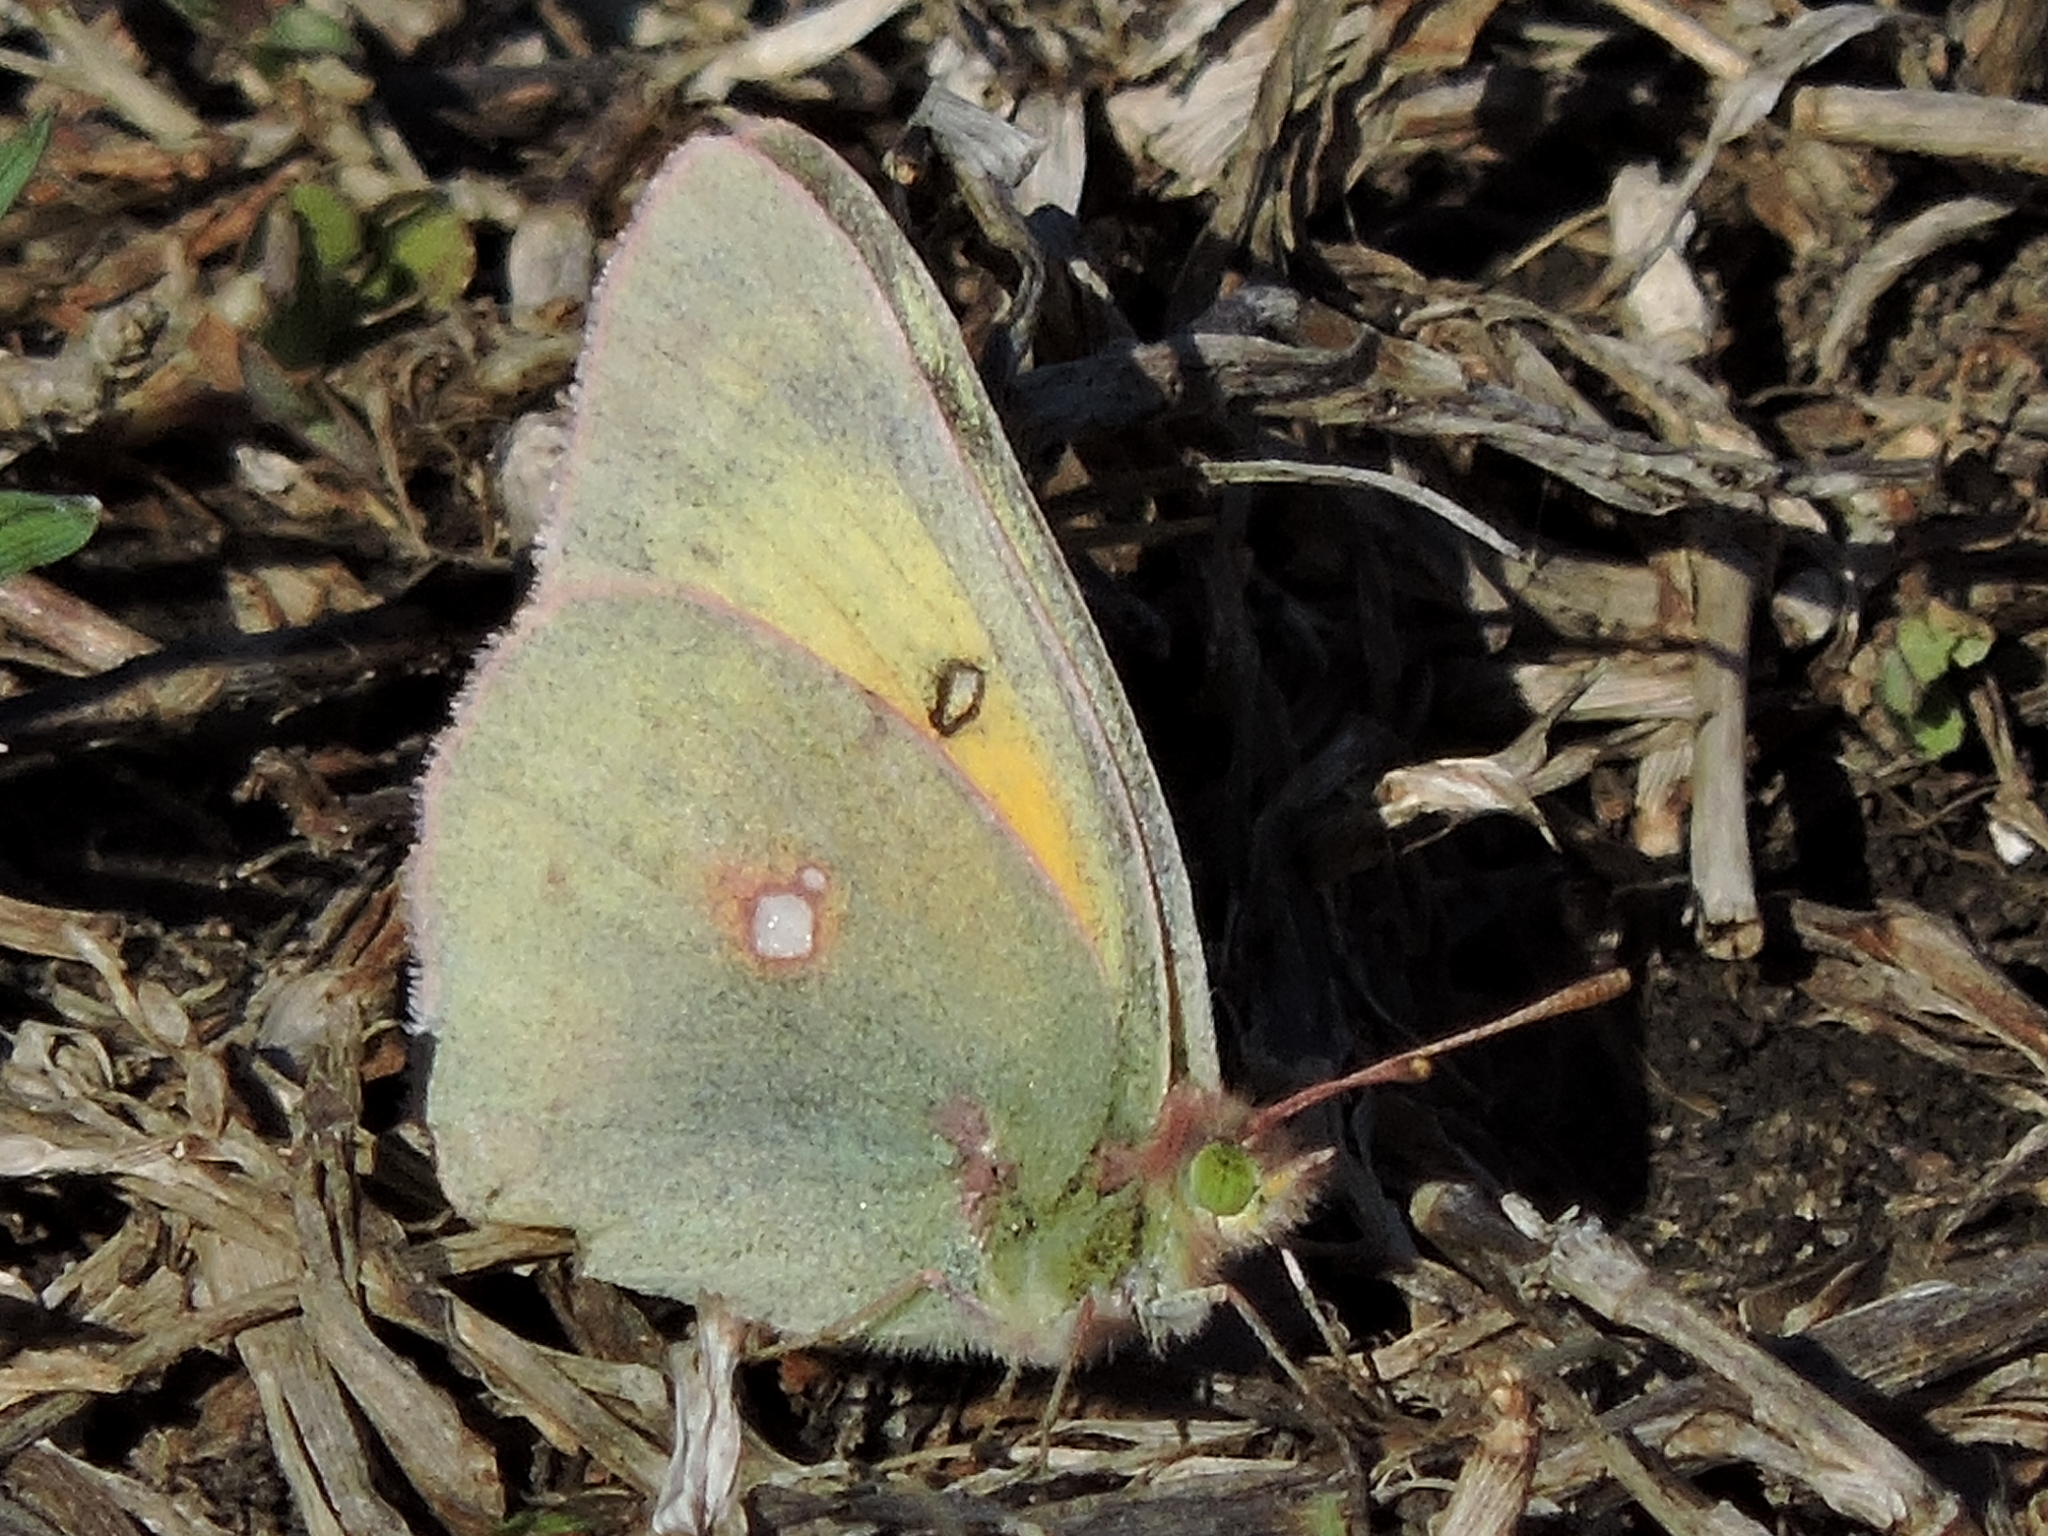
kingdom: Animalia
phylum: Arthropoda
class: Insecta
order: Lepidoptera
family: Pieridae
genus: Colias
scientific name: Colias eurytheme
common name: Alfalfa butterfly
